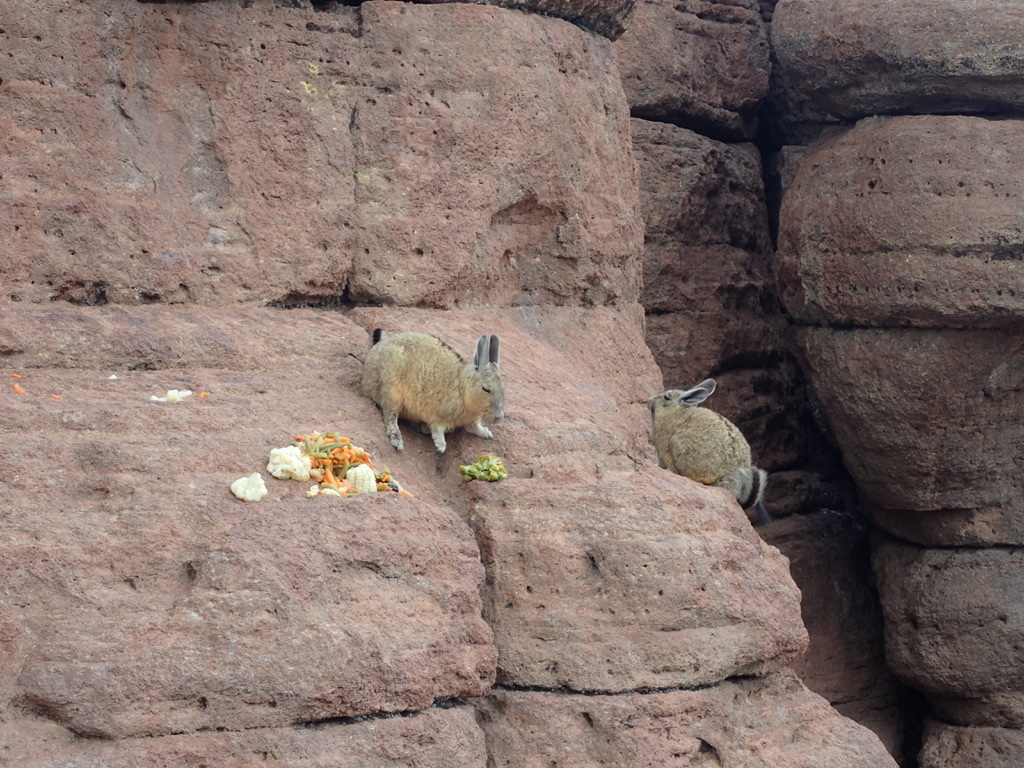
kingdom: Animalia
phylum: Chordata
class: Mammalia
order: Rodentia
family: Chinchillidae
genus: Lagidium
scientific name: Lagidium viscacia
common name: Southern viscacha
